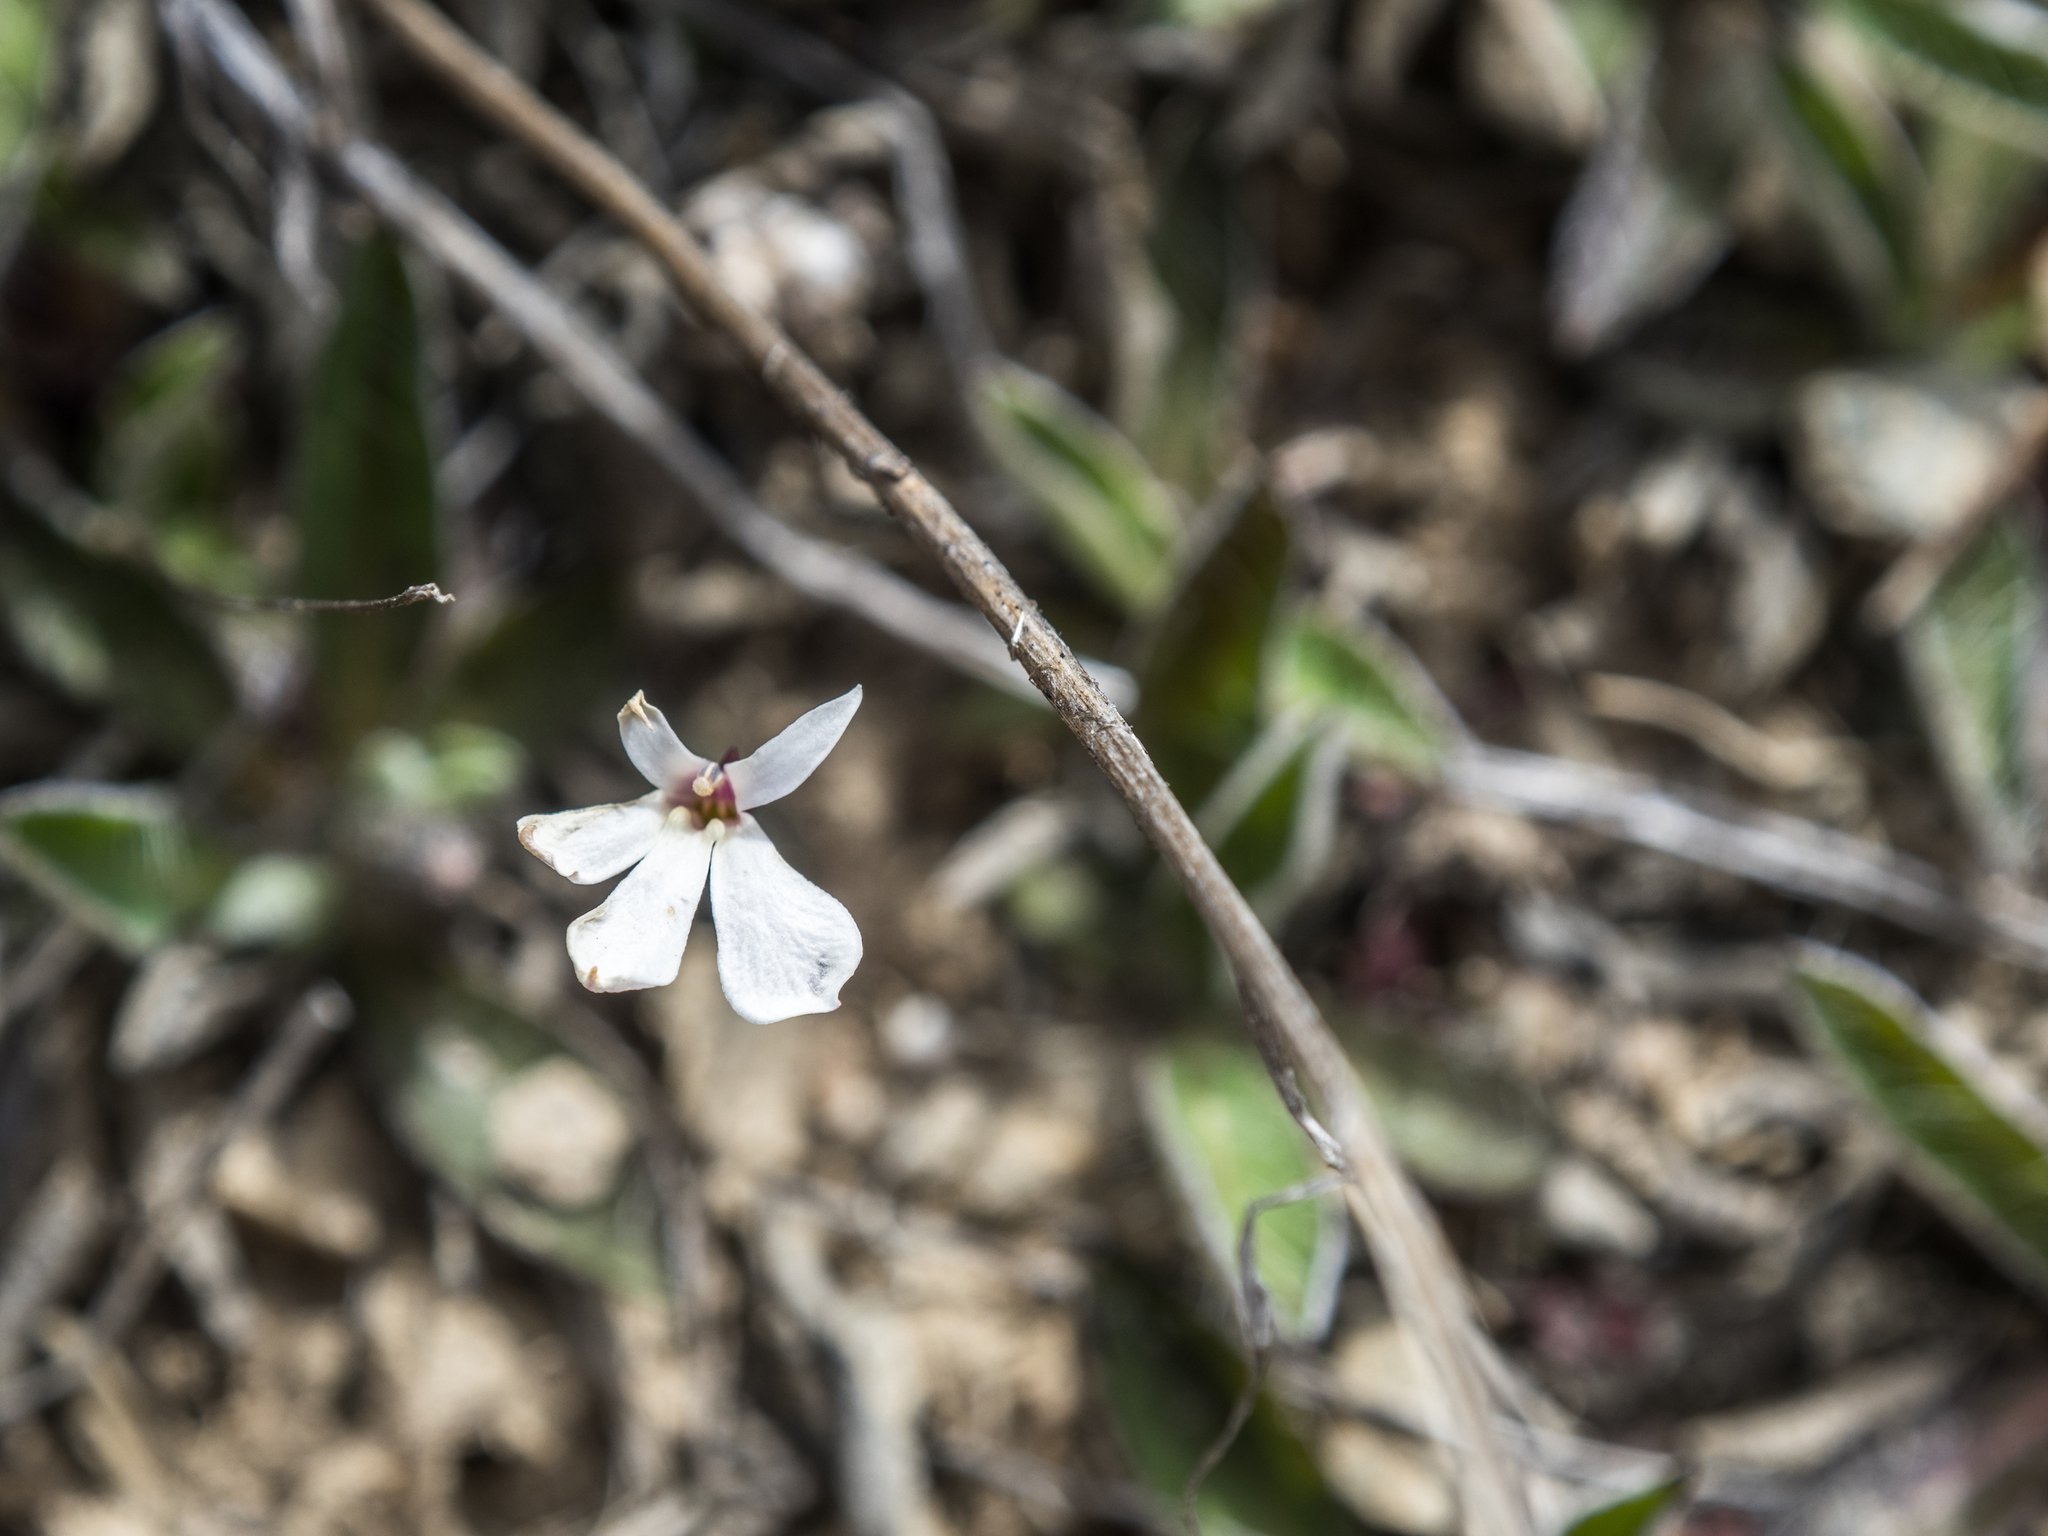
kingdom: Plantae
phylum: Tracheophyta
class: Magnoliopsida
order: Asterales
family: Campanulaceae
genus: Lobelia
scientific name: Lobelia angulata
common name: Lawn lobelia
